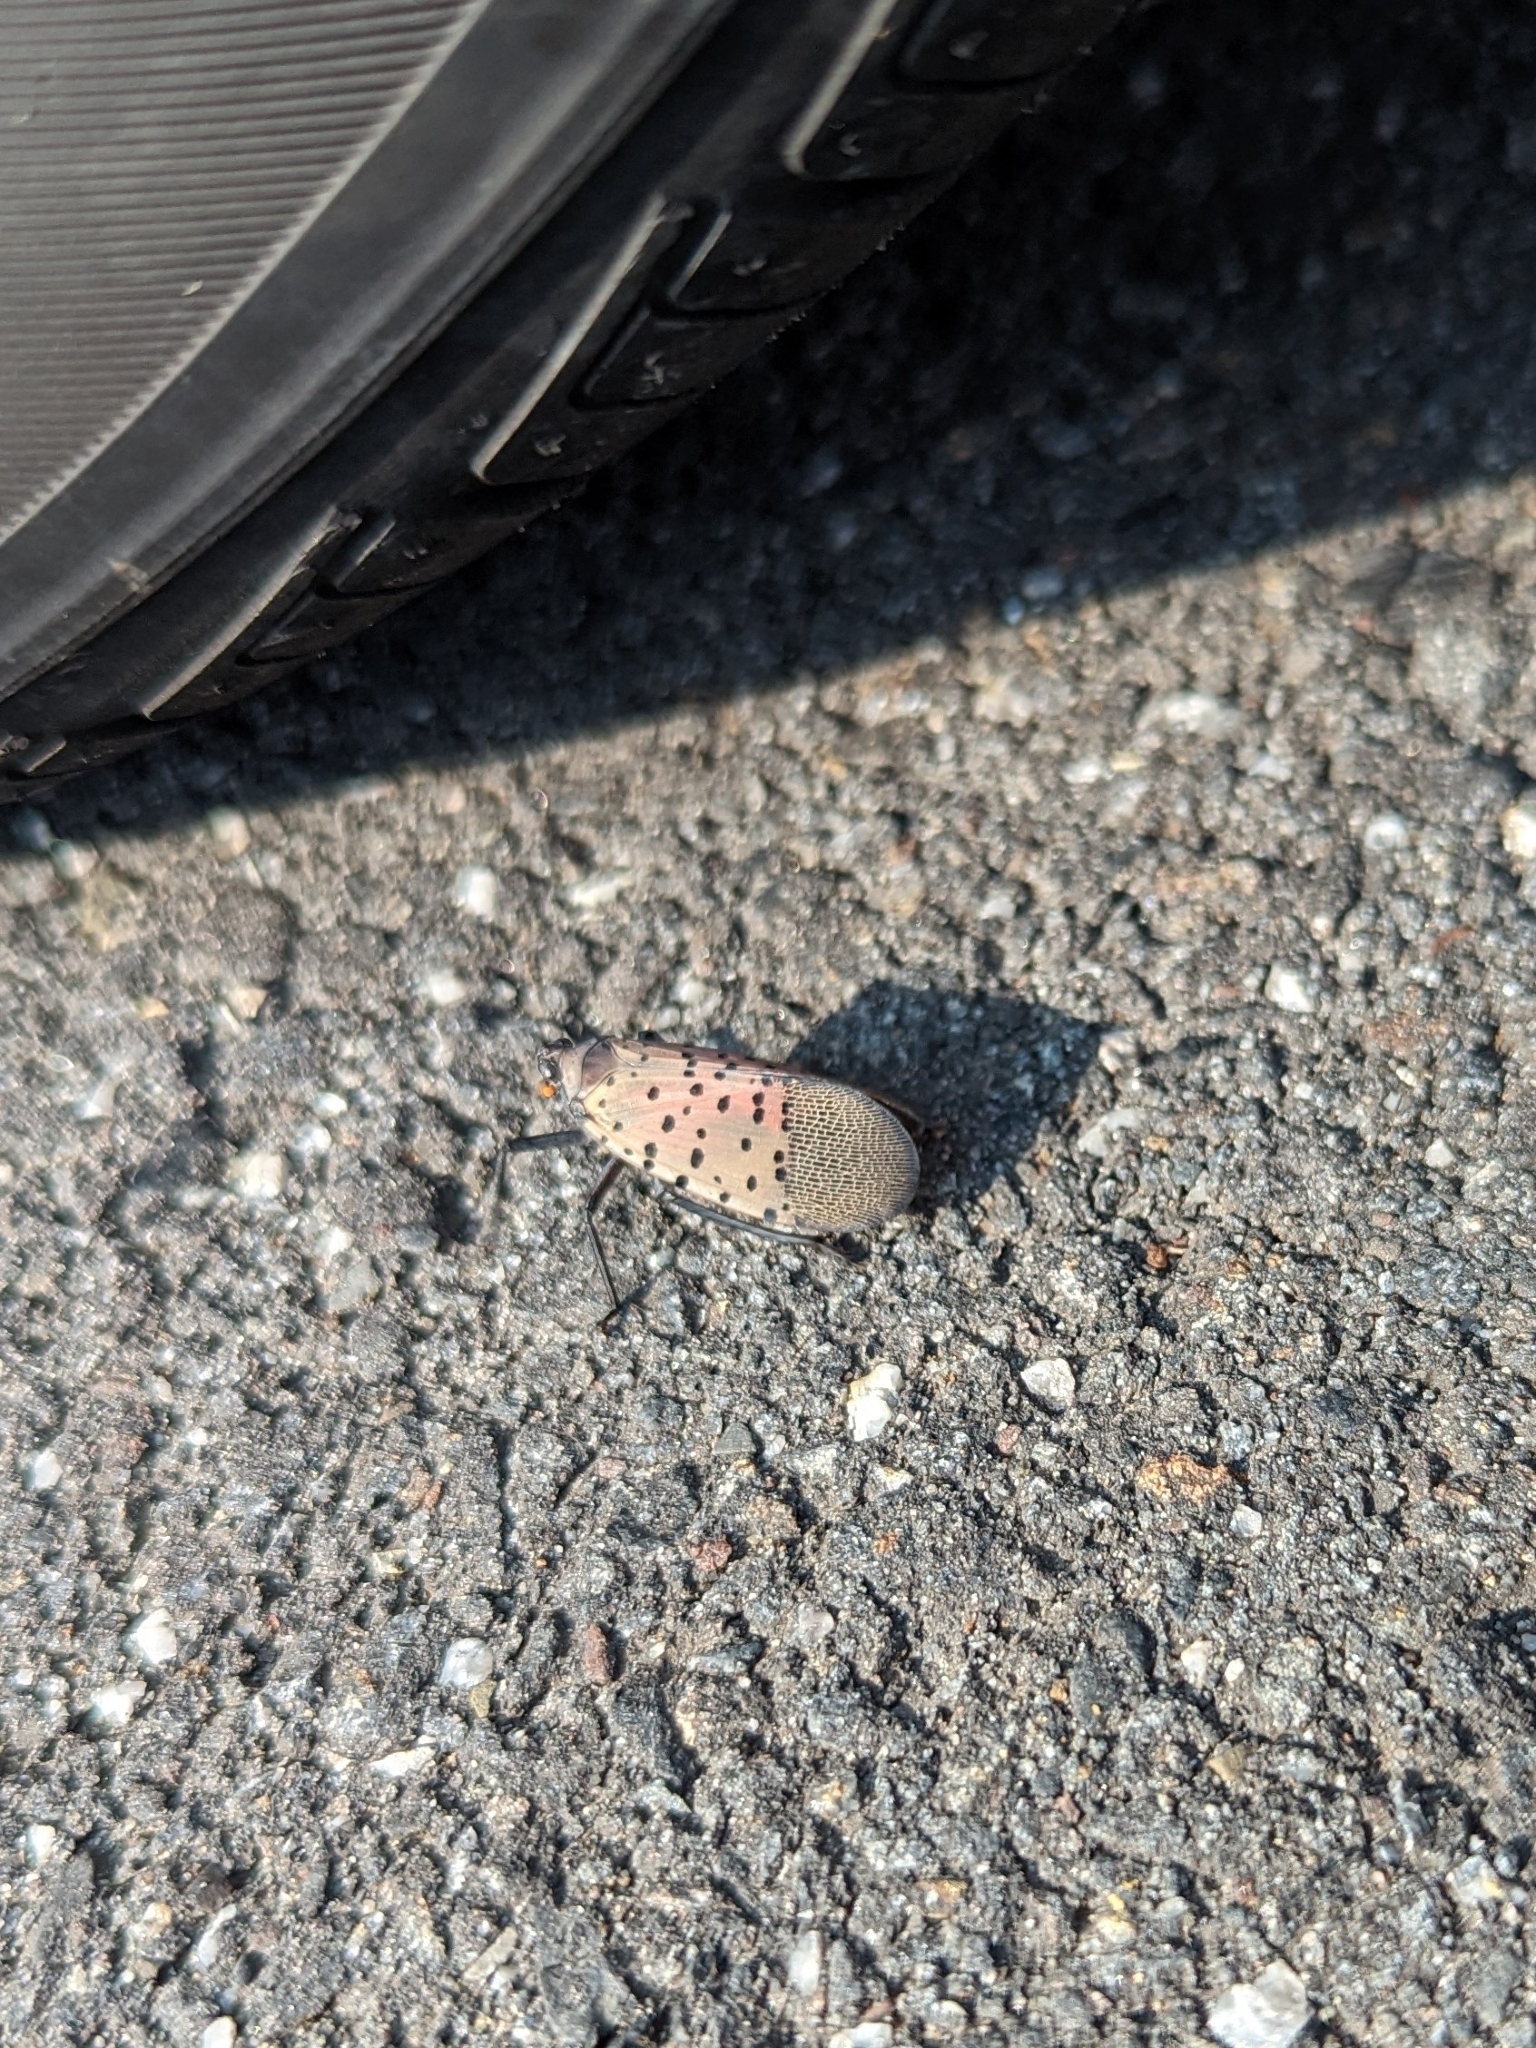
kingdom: Animalia
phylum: Arthropoda
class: Insecta
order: Hemiptera
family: Fulgoridae
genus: Lycorma
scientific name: Lycorma delicatula
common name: Spotted lanternfly
